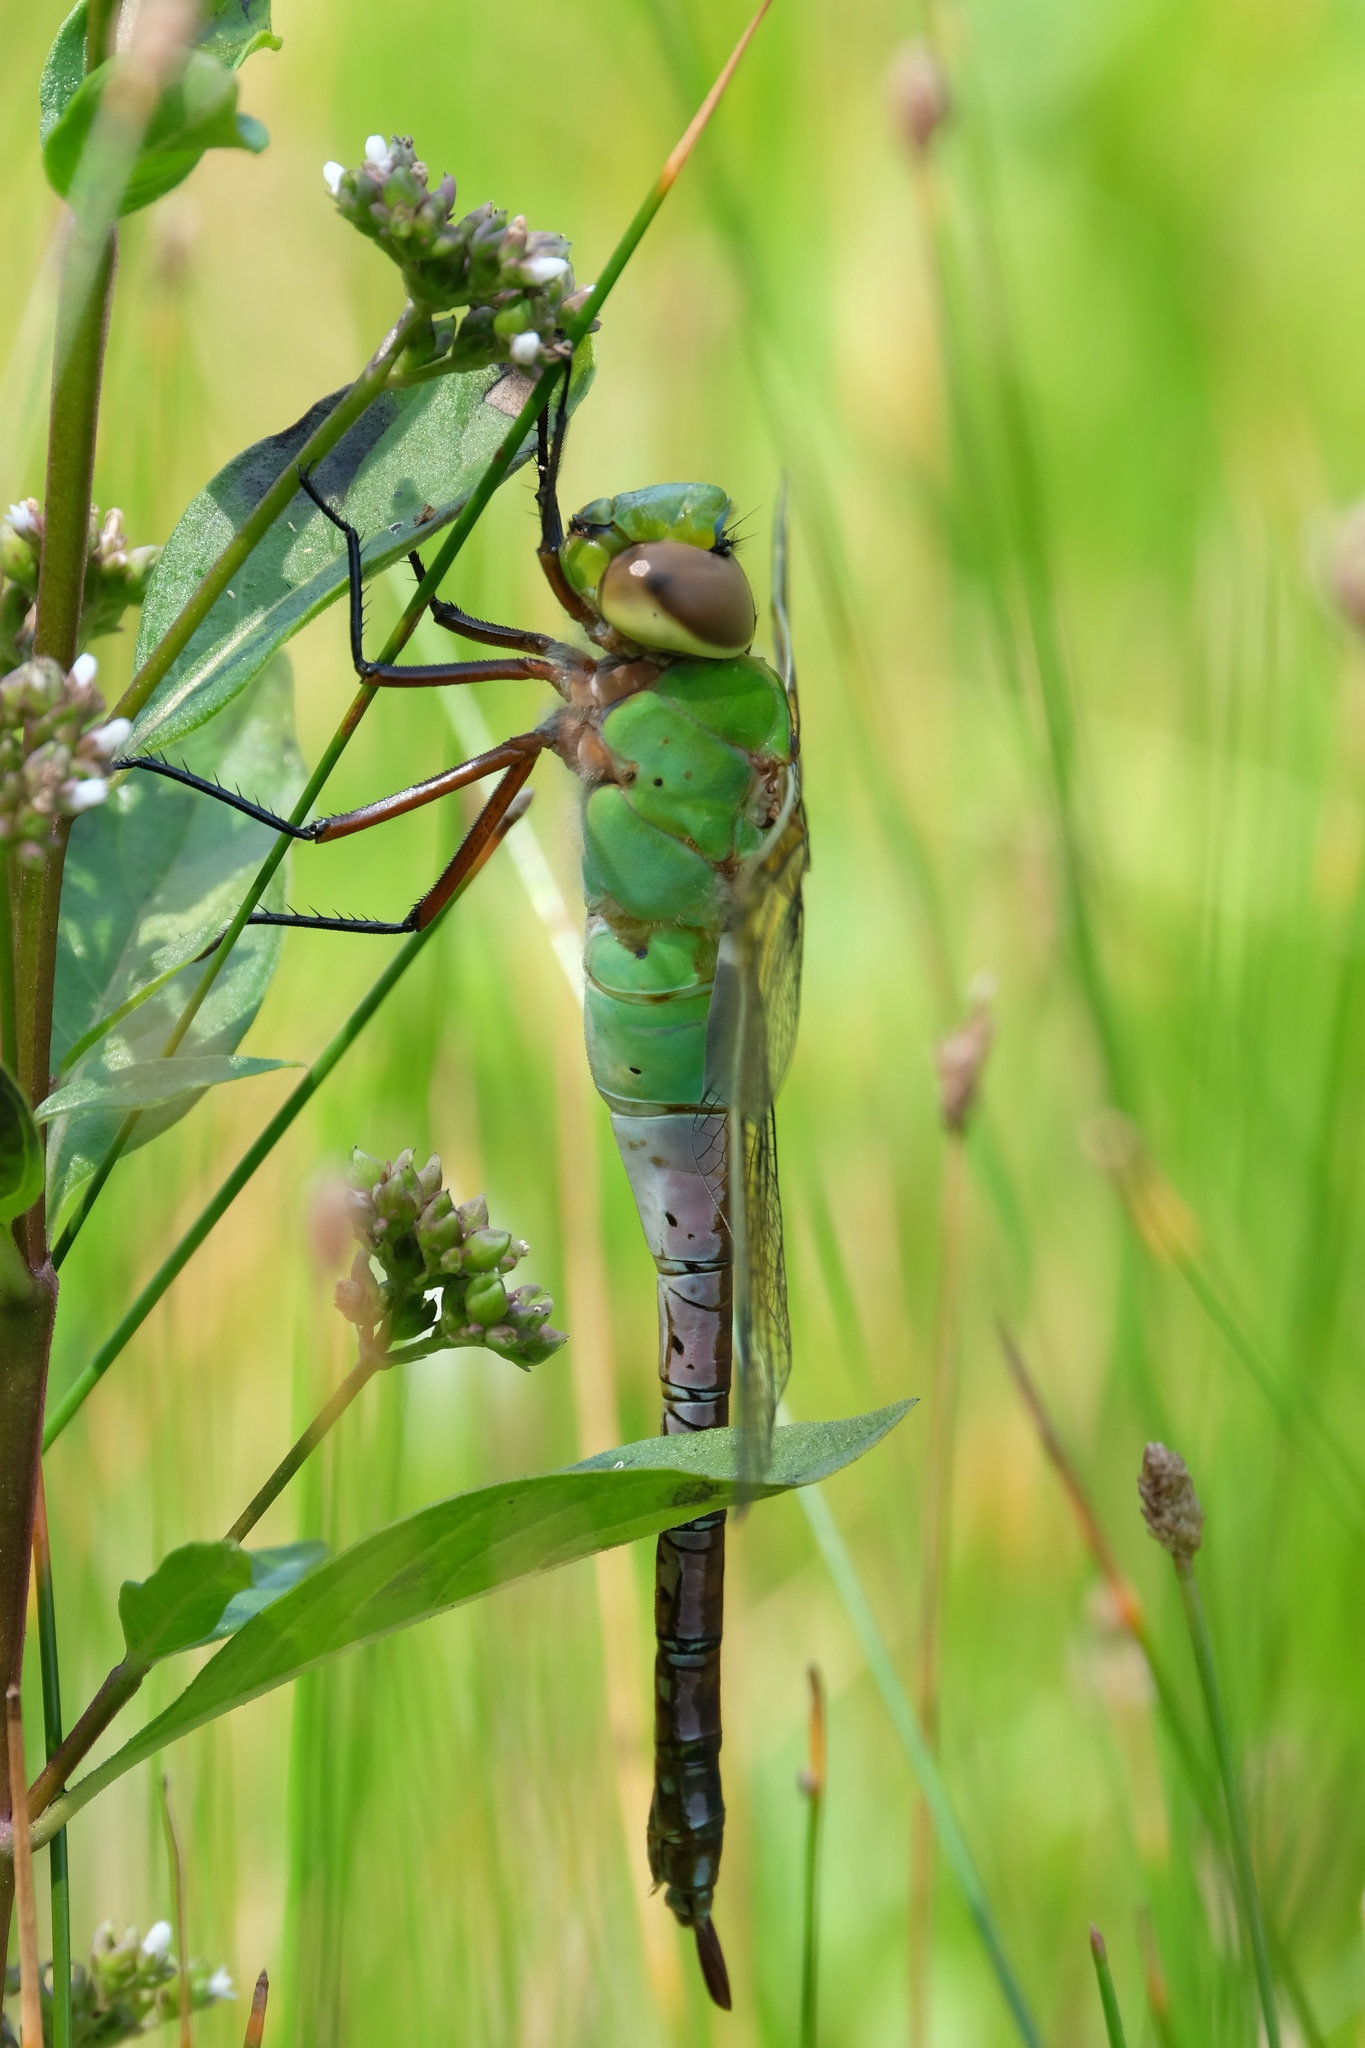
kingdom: Animalia
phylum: Arthropoda
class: Insecta
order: Odonata
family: Aeshnidae
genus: Anax
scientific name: Anax junius
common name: Common green darner
